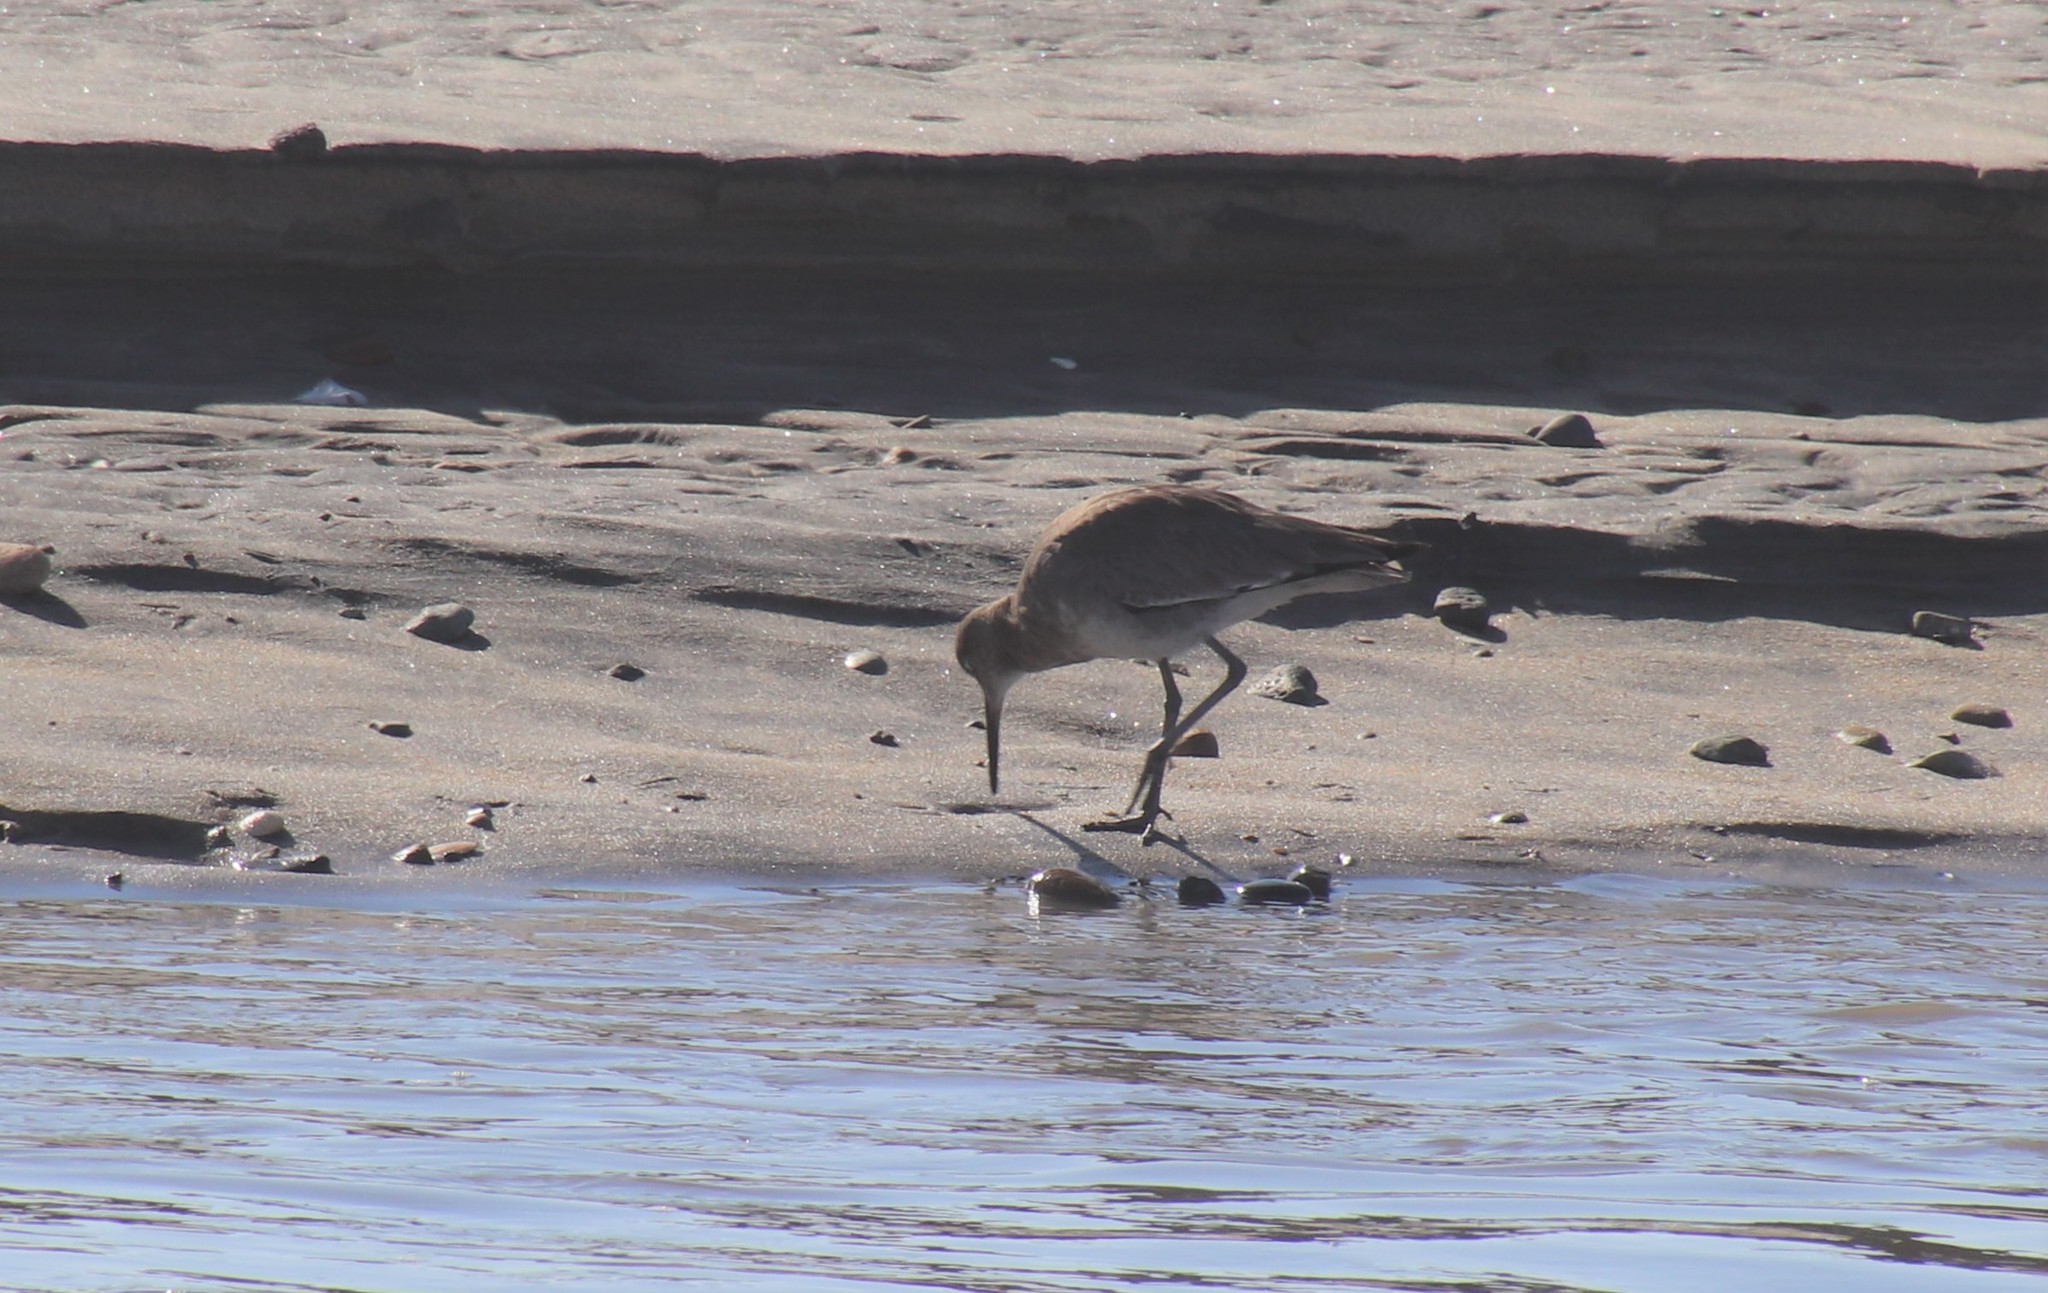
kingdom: Animalia
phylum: Chordata
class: Aves
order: Charadriiformes
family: Scolopacidae
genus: Tringa
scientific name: Tringa semipalmata
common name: Willet
